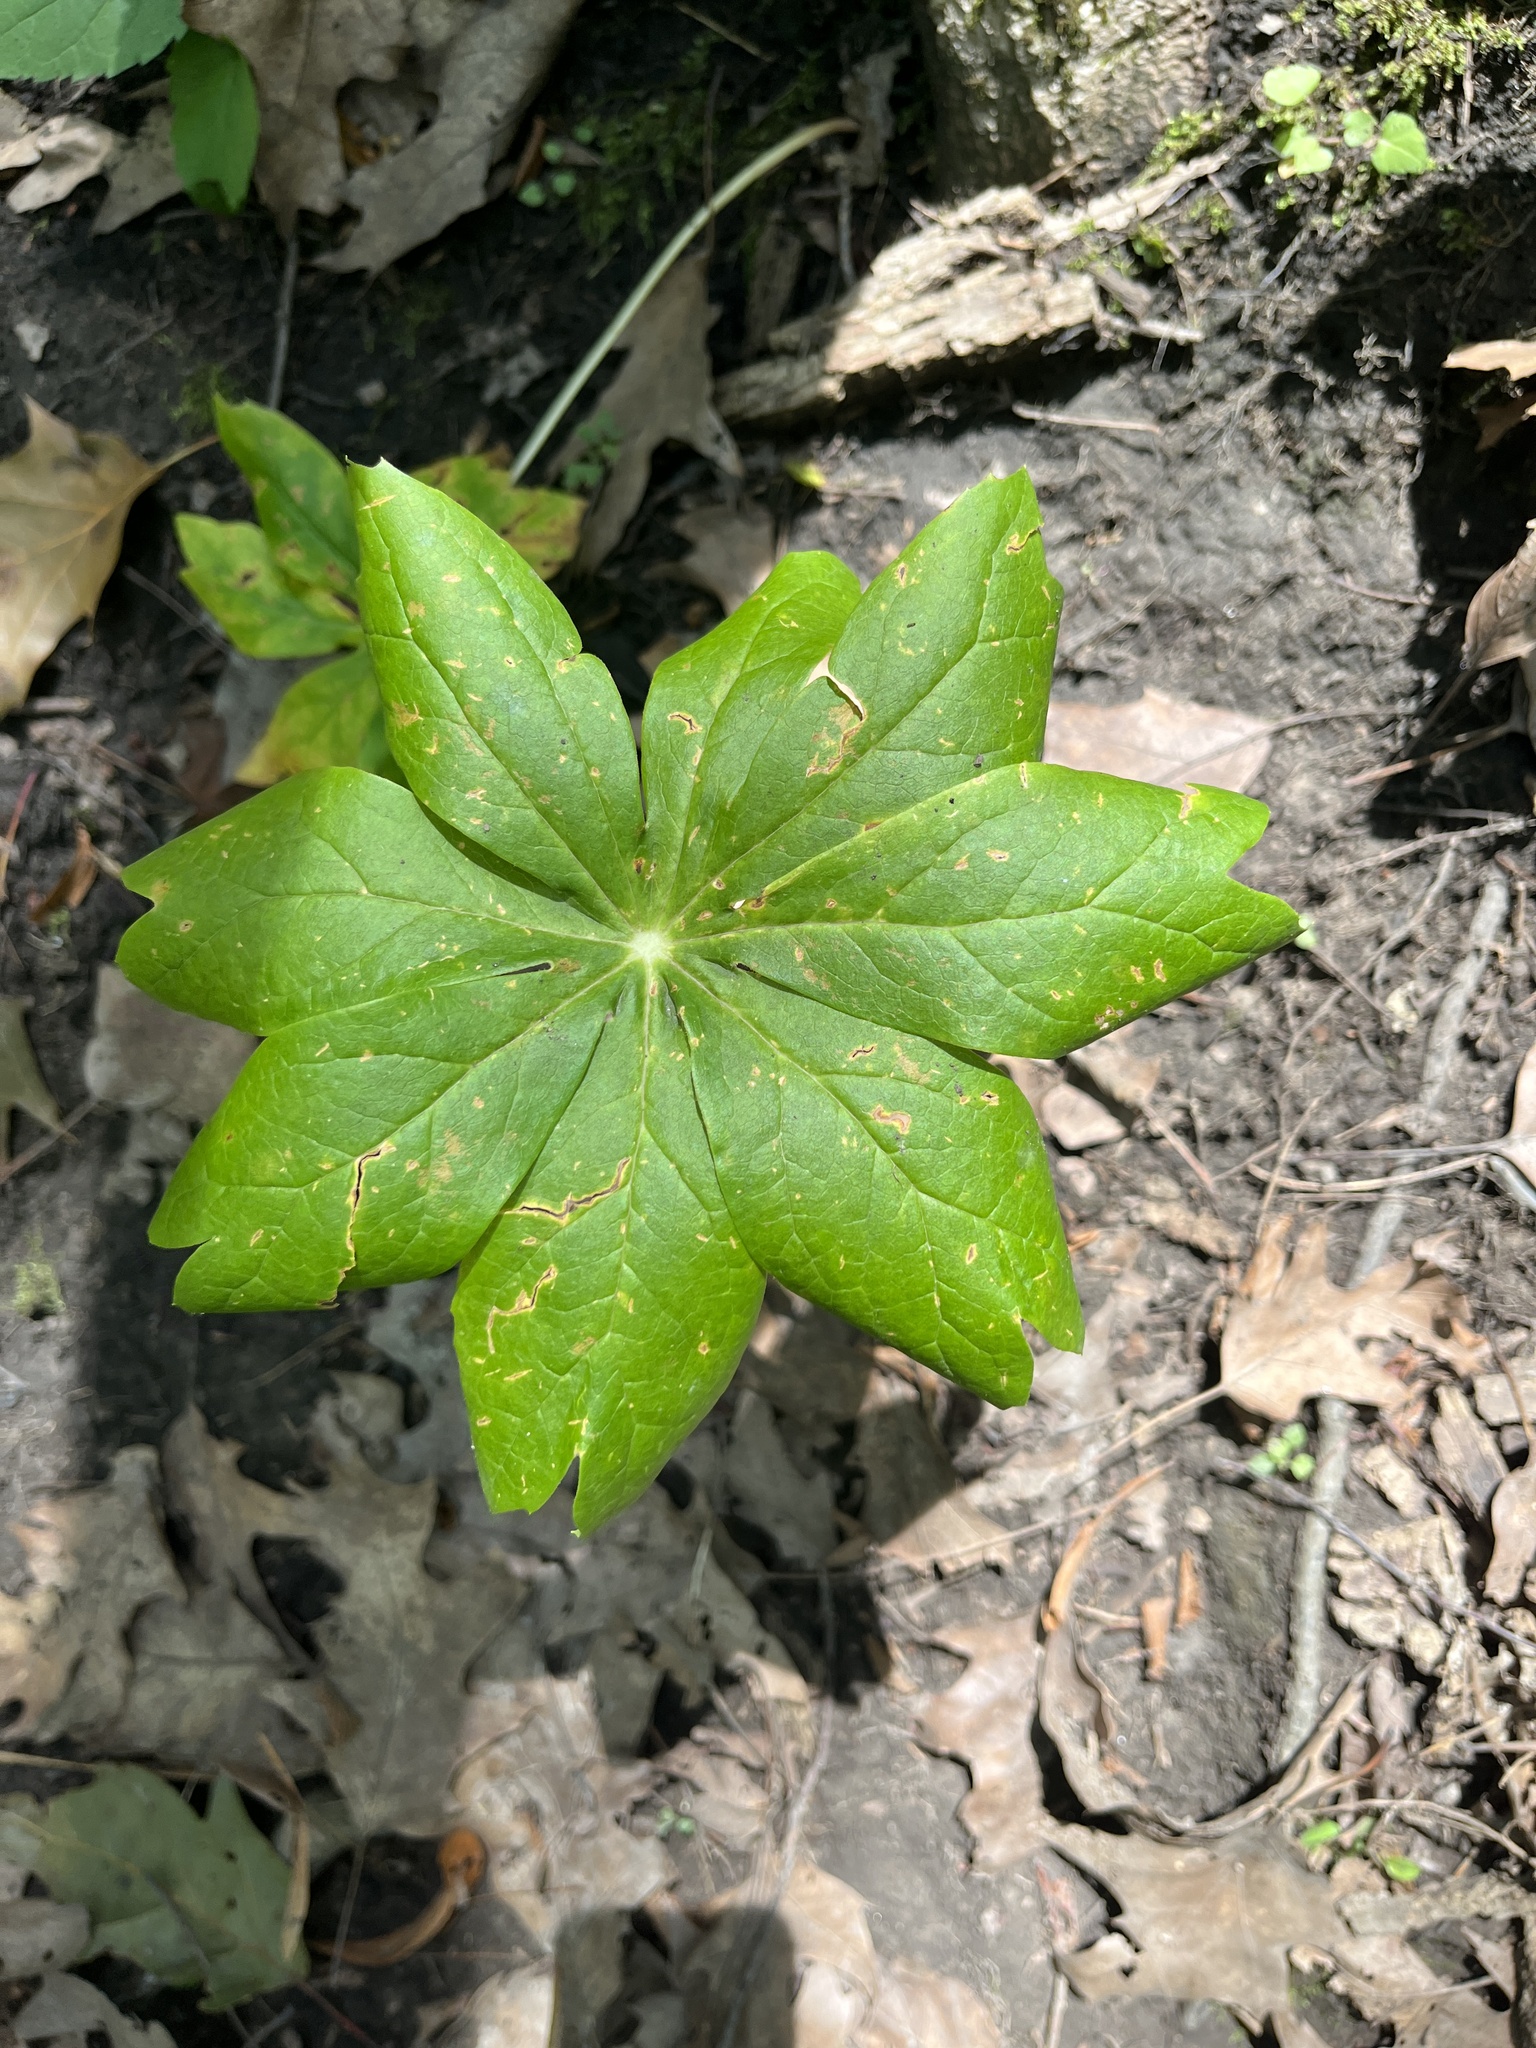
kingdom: Plantae
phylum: Tracheophyta
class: Magnoliopsida
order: Ranunculales
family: Berberidaceae
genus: Podophyllum
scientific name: Podophyllum peltatum
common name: Wild mandrake
